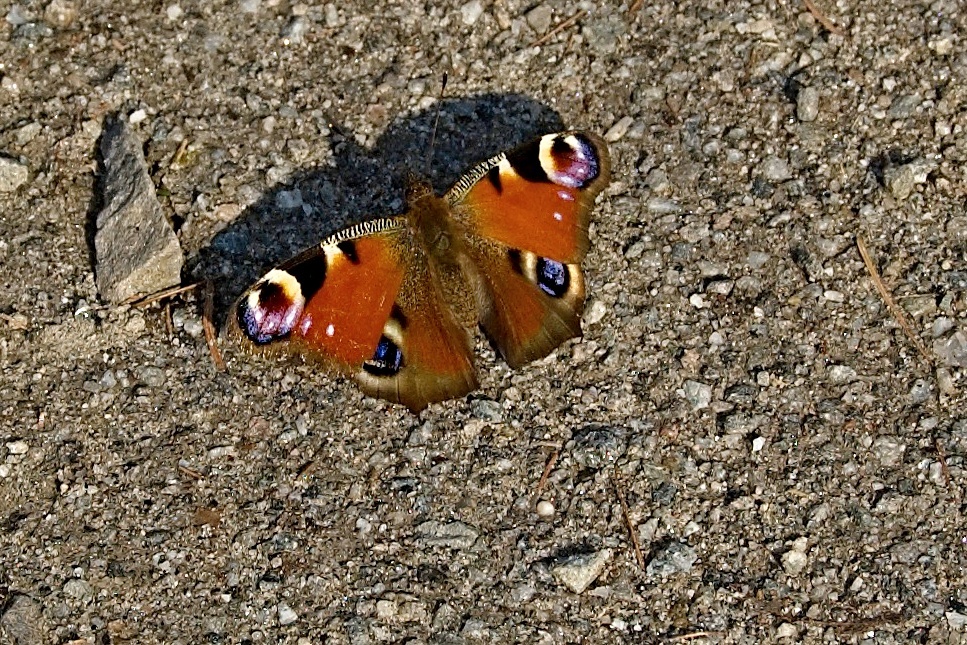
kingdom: Animalia
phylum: Arthropoda
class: Insecta
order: Lepidoptera
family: Nymphalidae
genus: Aglais
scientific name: Aglais io
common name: Peacock
